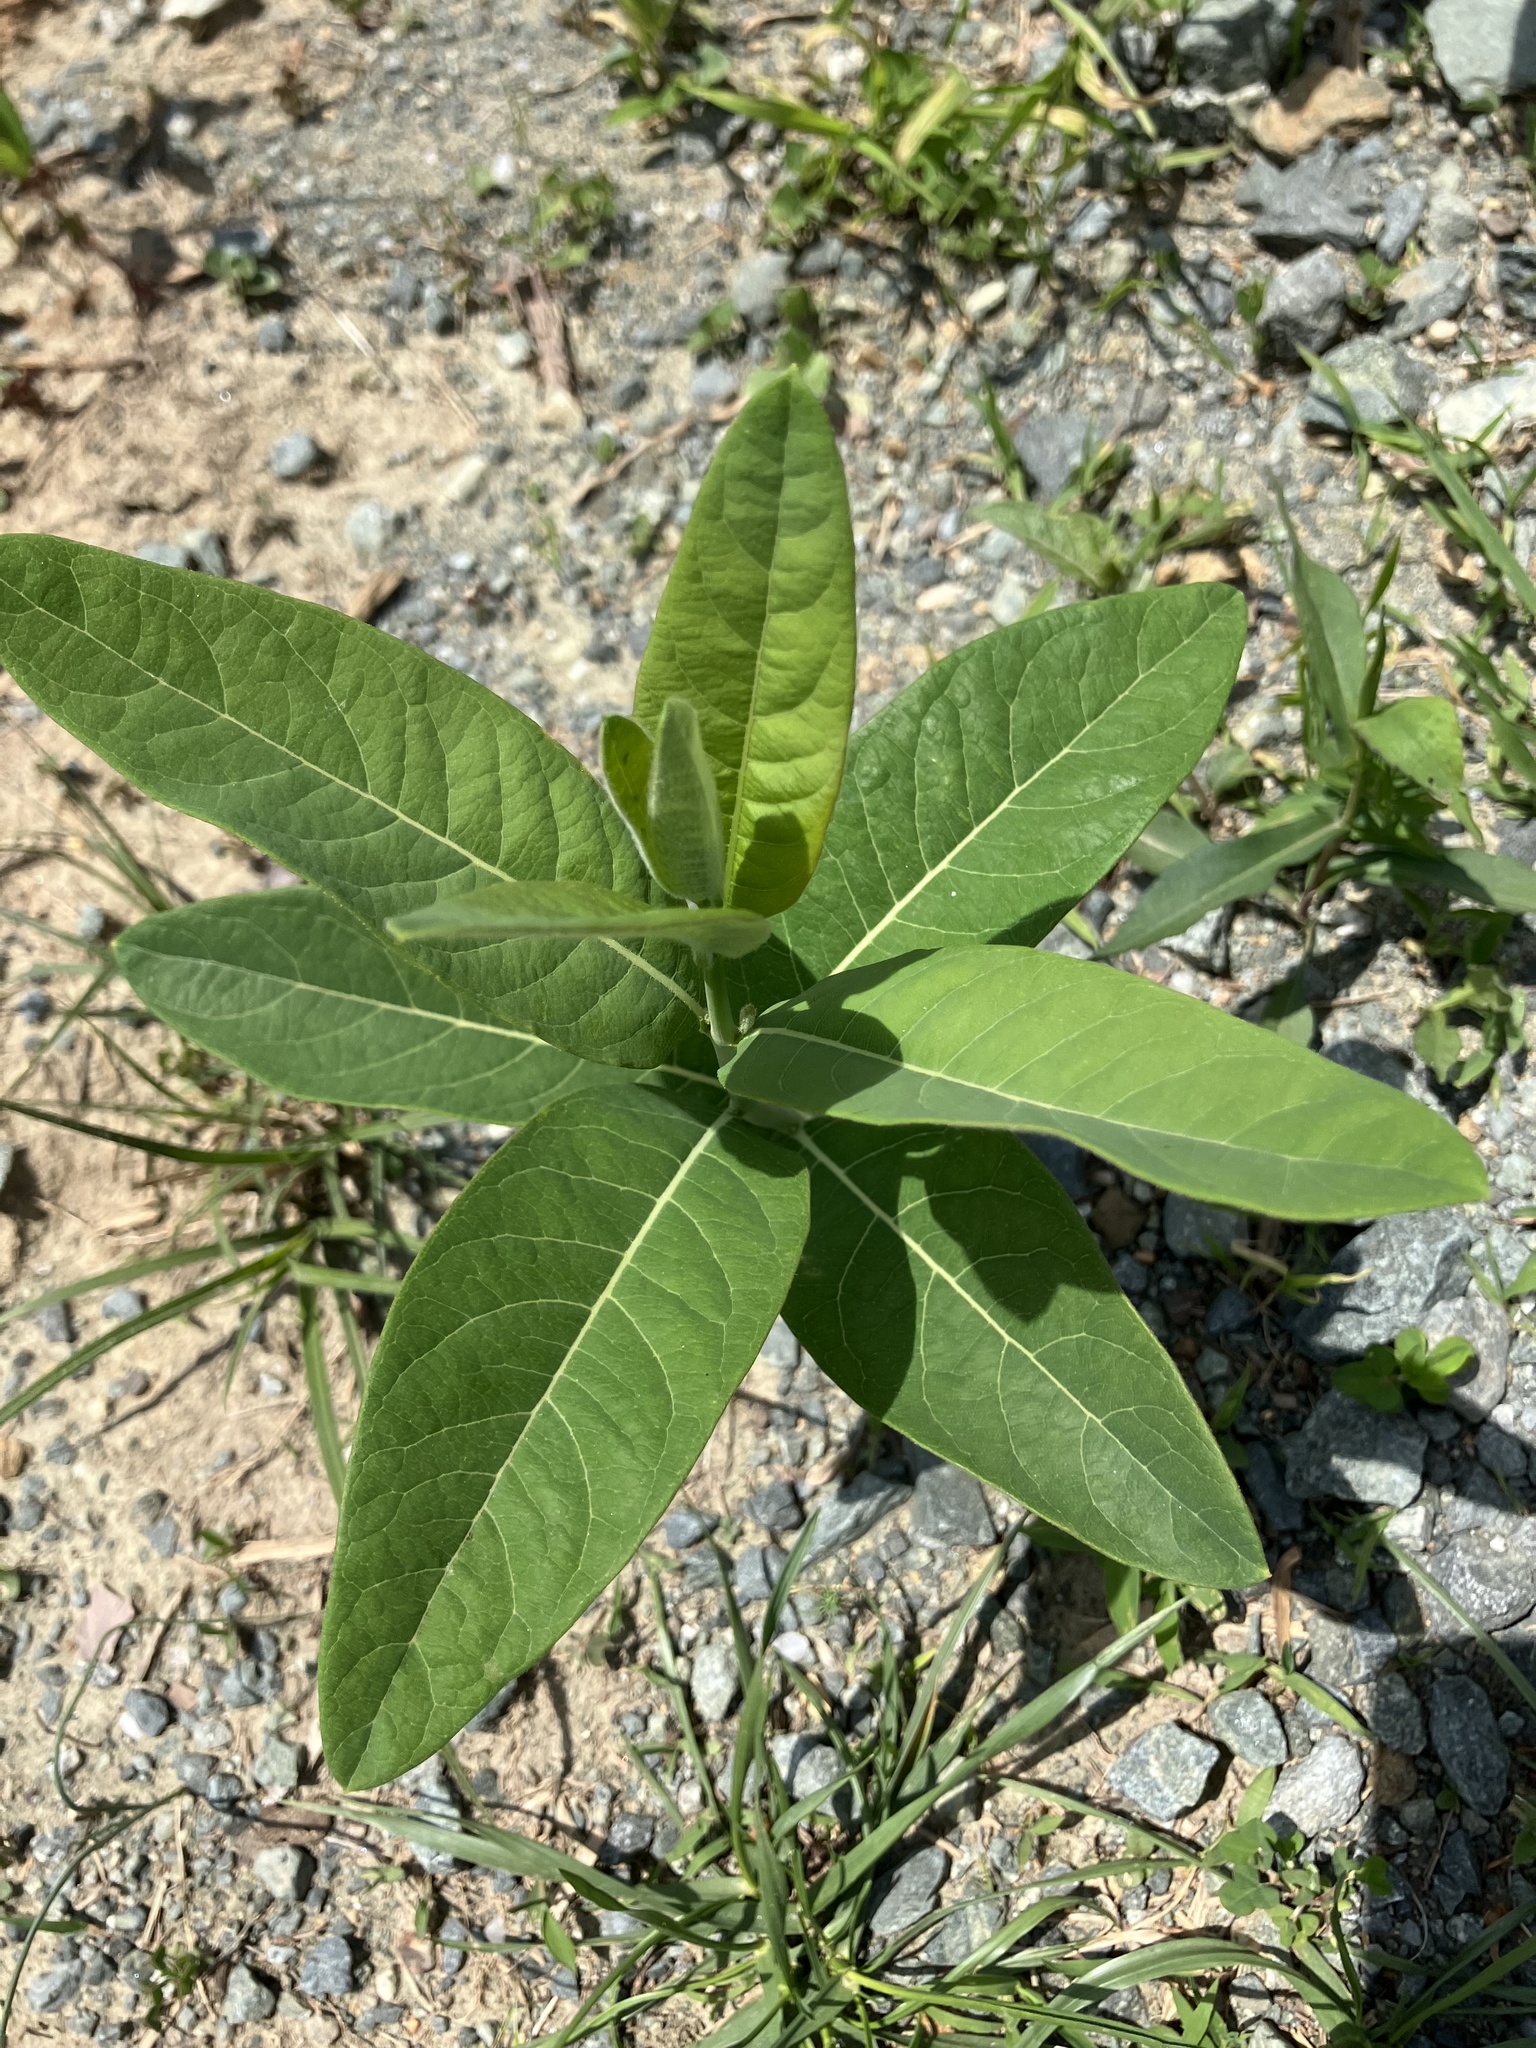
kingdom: Plantae
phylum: Tracheophyta
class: Magnoliopsida
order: Gentianales
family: Apocynaceae
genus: Apocynum
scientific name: Apocynum cannabinum
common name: Hemp dogbane
